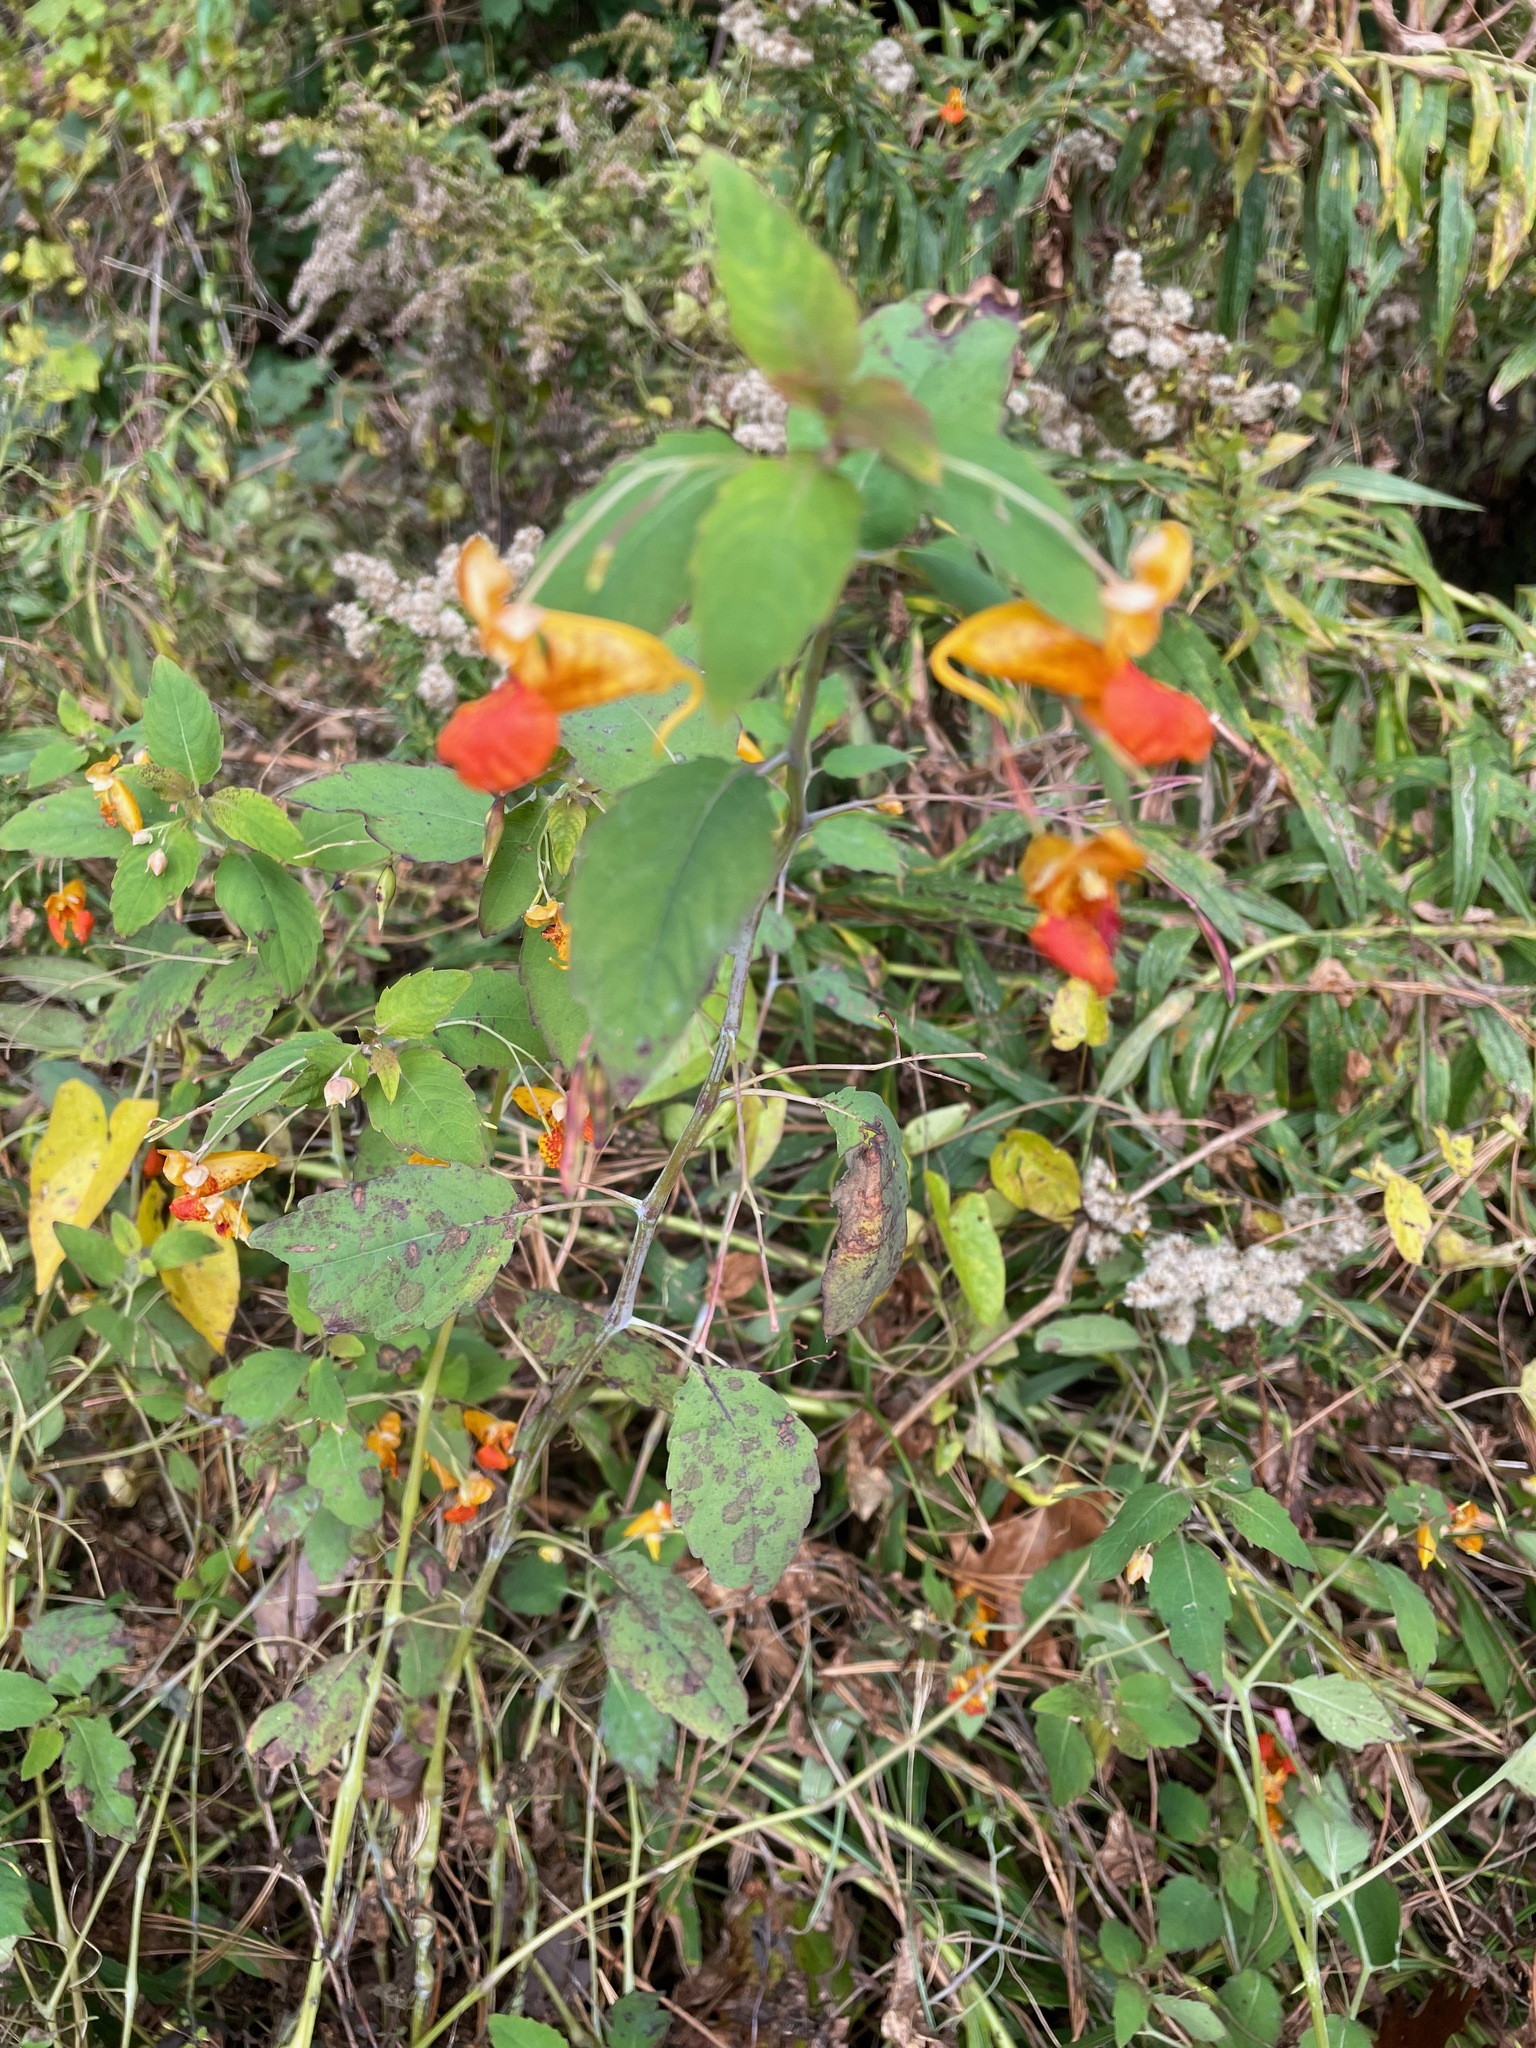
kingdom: Plantae
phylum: Tracheophyta
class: Magnoliopsida
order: Ericales
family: Balsaminaceae
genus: Impatiens
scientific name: Impatiens capensis
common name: Orange balsam
